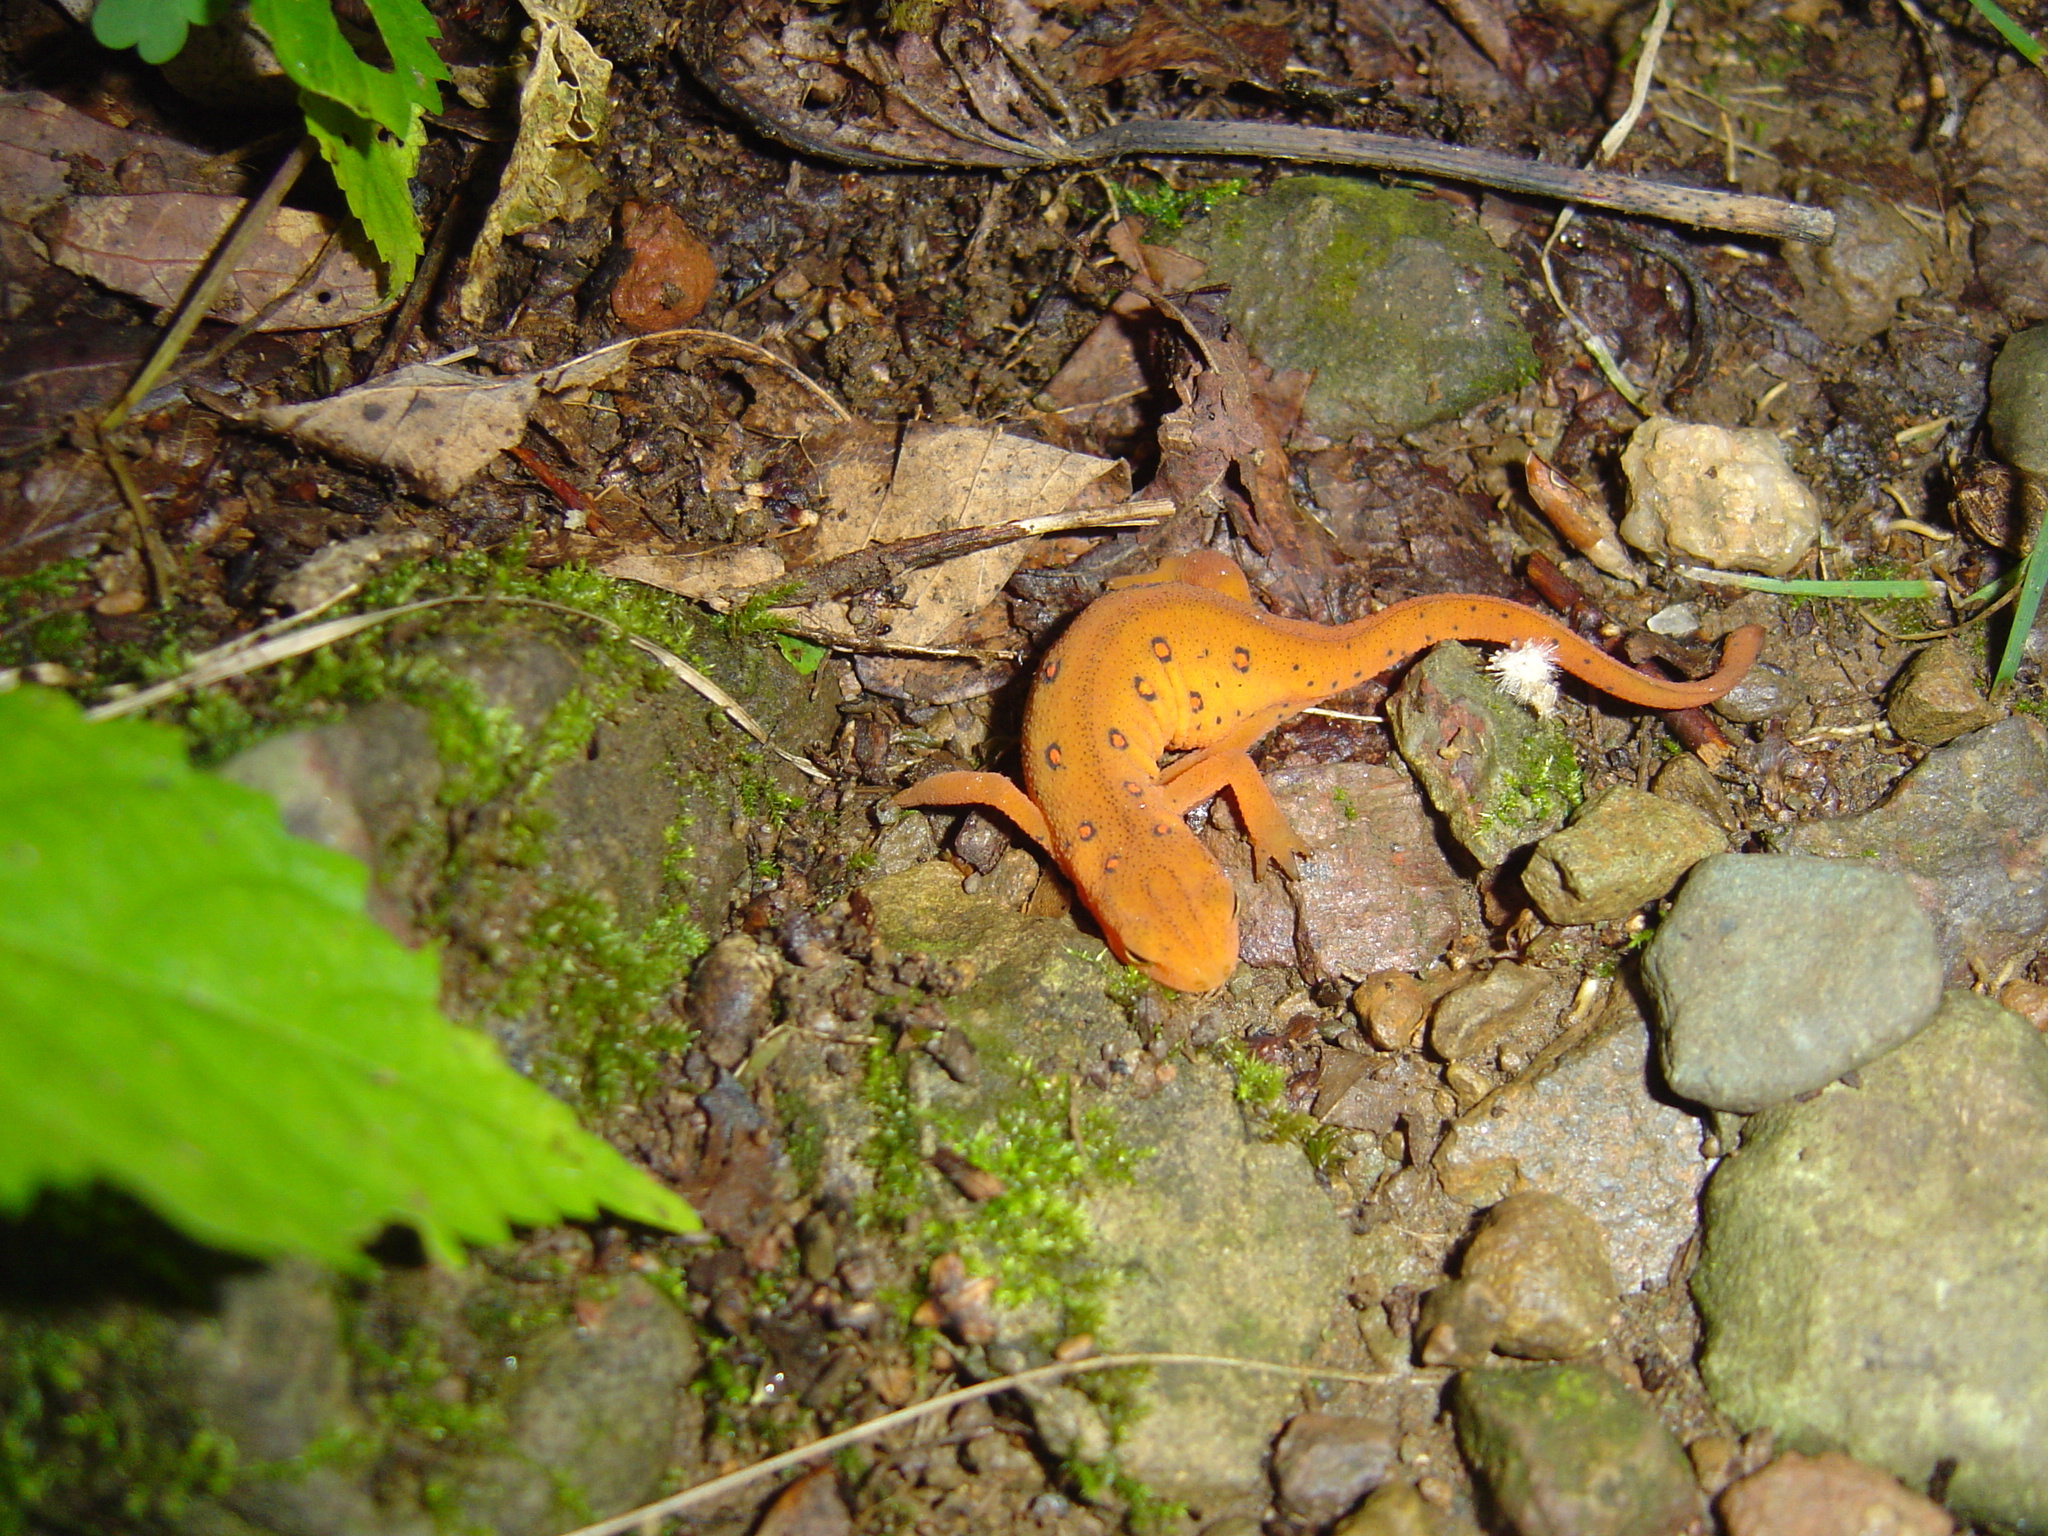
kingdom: Animalia
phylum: Chordata
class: Amphibia
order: Caudata
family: Salamandridae
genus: Notophthalmus
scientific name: Notophthalmus viridescens
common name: Eastern newt
